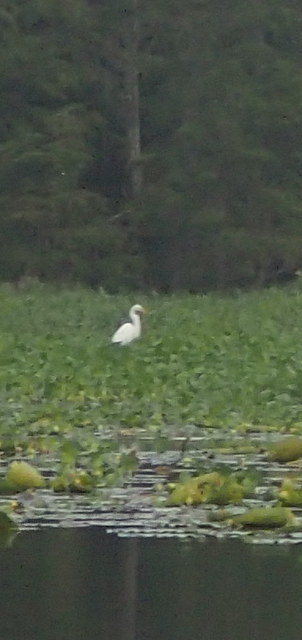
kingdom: Animalia
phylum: Chordata
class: Aves
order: Pelecaniformes
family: Ardeidae
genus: Ardea
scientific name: Ardea alba
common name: Great egret
